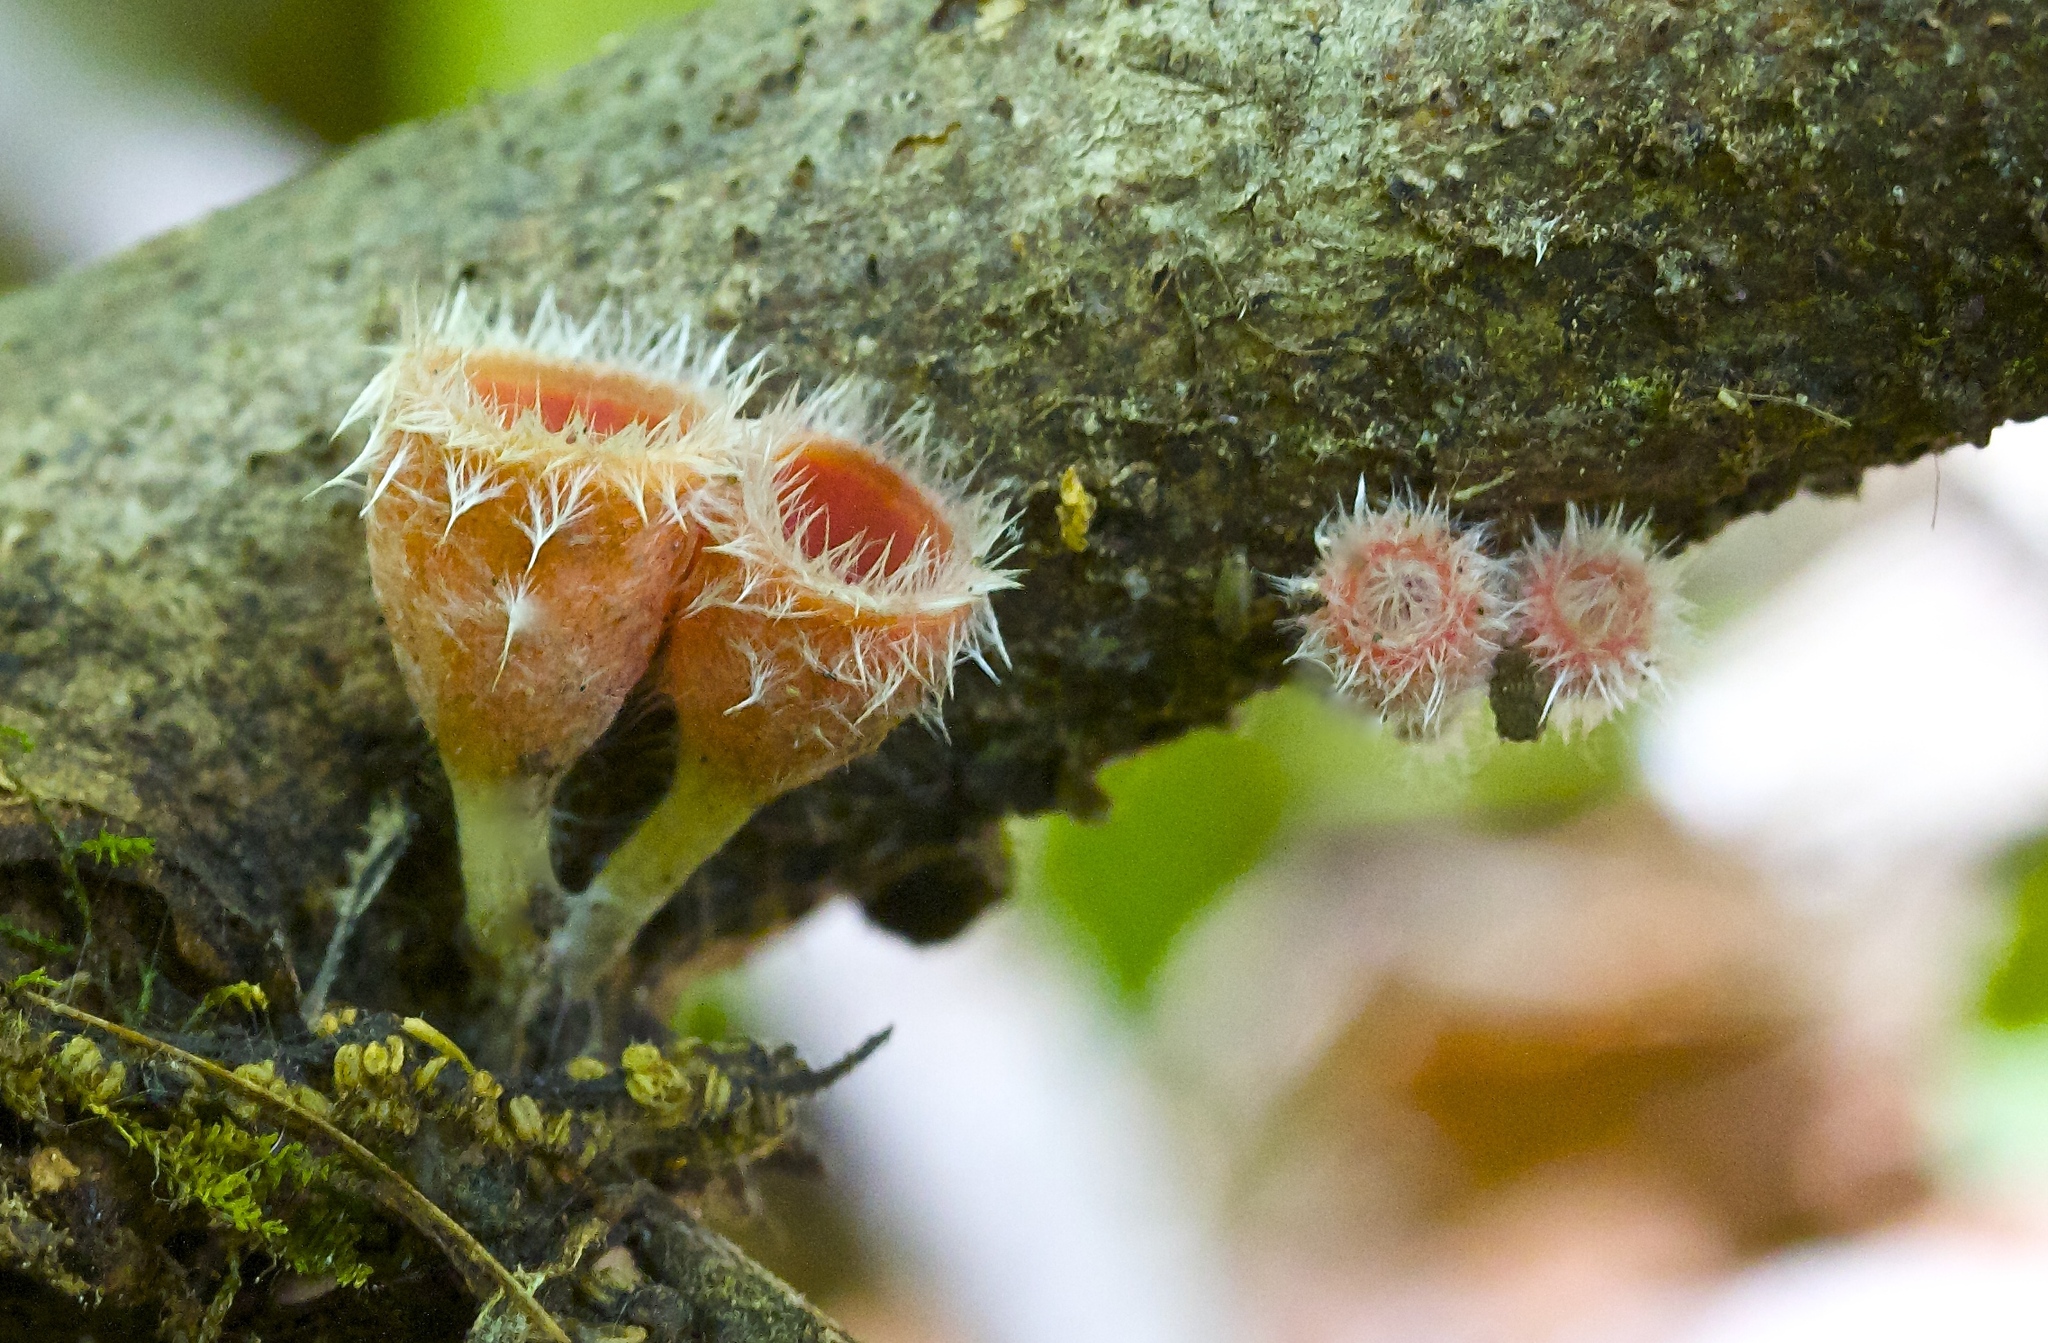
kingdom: Fungi
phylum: Ascomycota
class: Pezizomycetes
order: Pezizales
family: Sarcoscyphaceae
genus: Microstoma
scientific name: Microstoma floccosum
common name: Pink fringed faery cup
